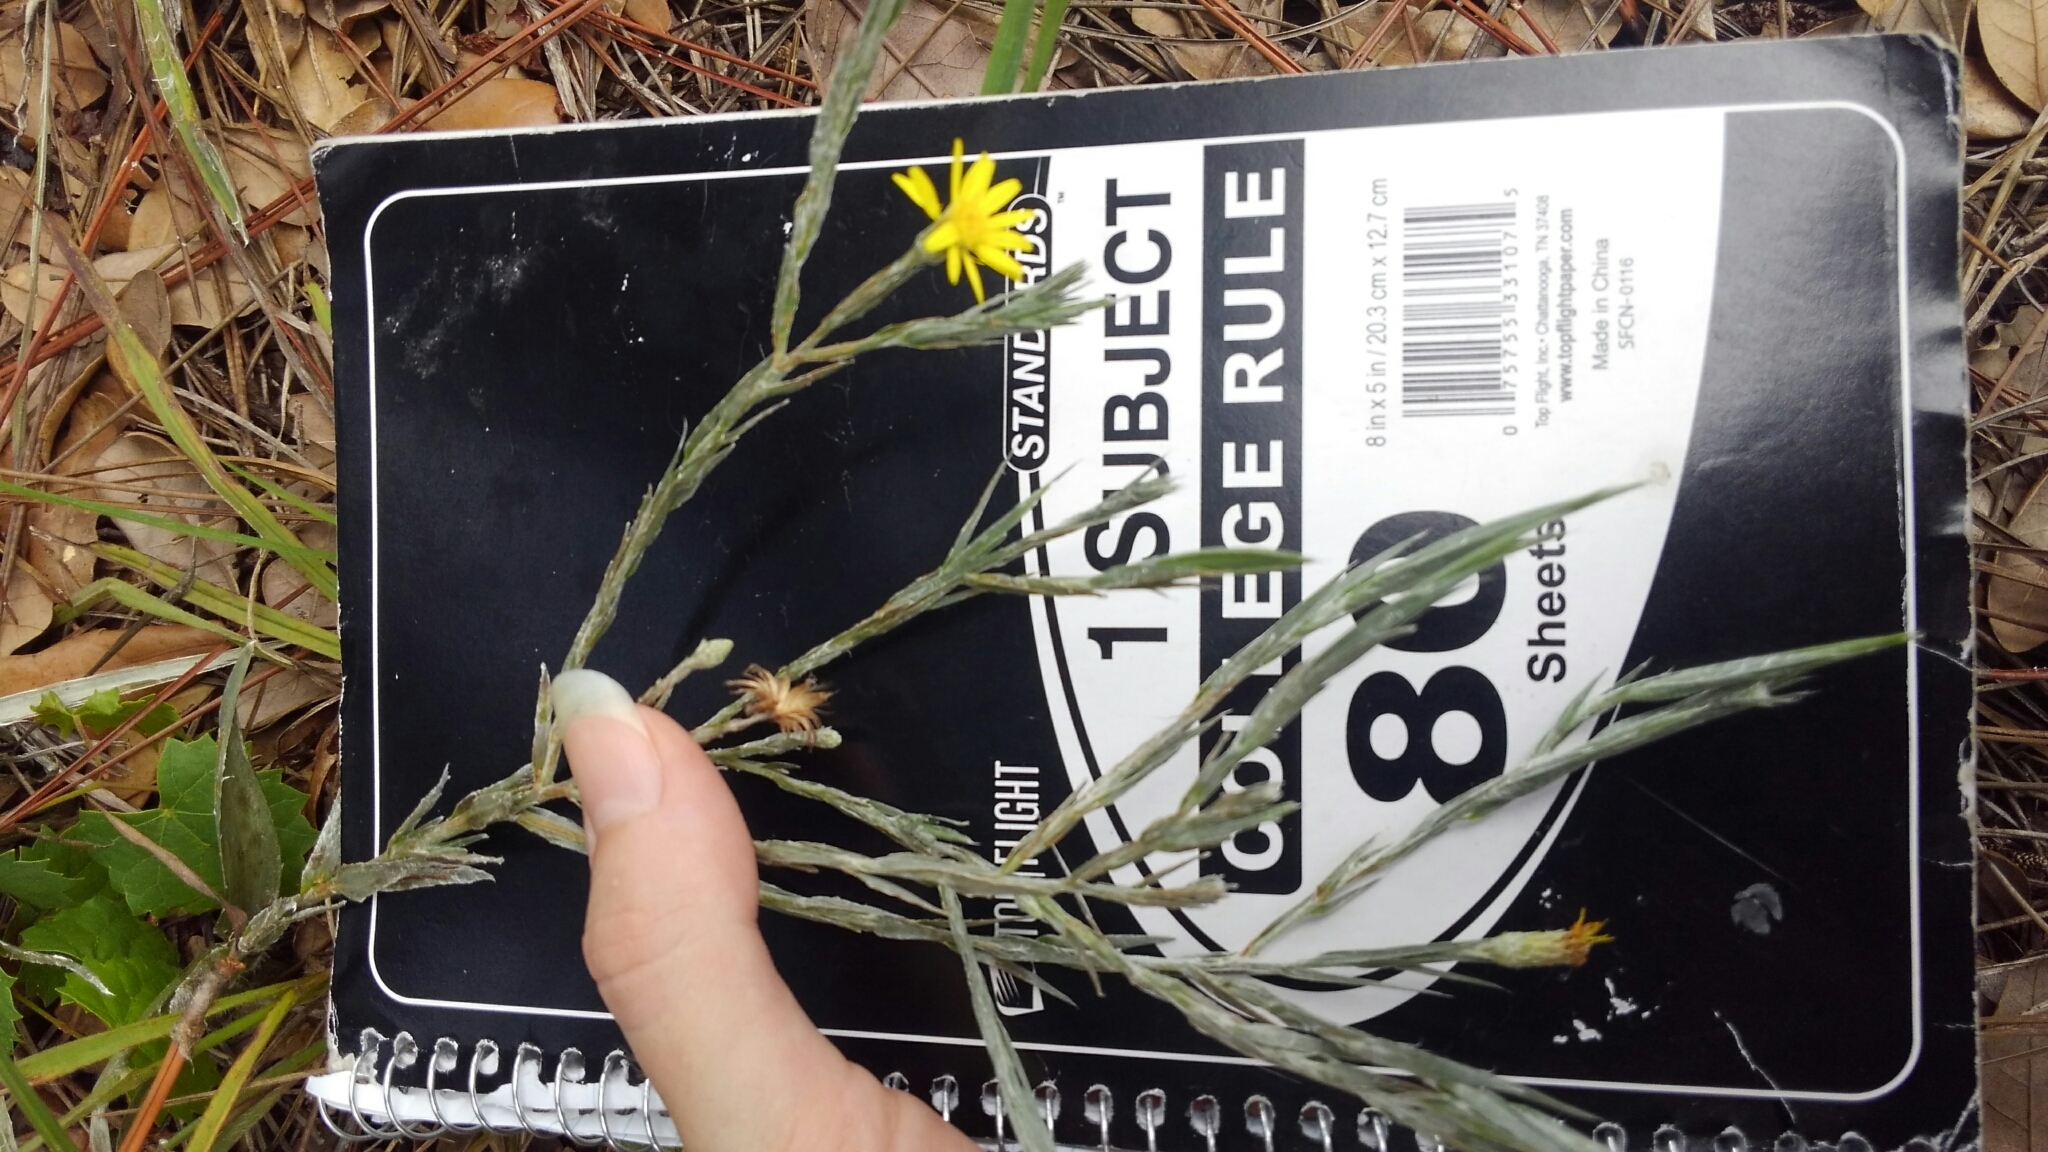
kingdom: Plantae
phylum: Tracheophyta
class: Magnoliopsida
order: Asterales
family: Asteraceae
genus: Pityopsis
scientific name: Pityopsis graminifolia
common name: Grass-leaf golden-aster
